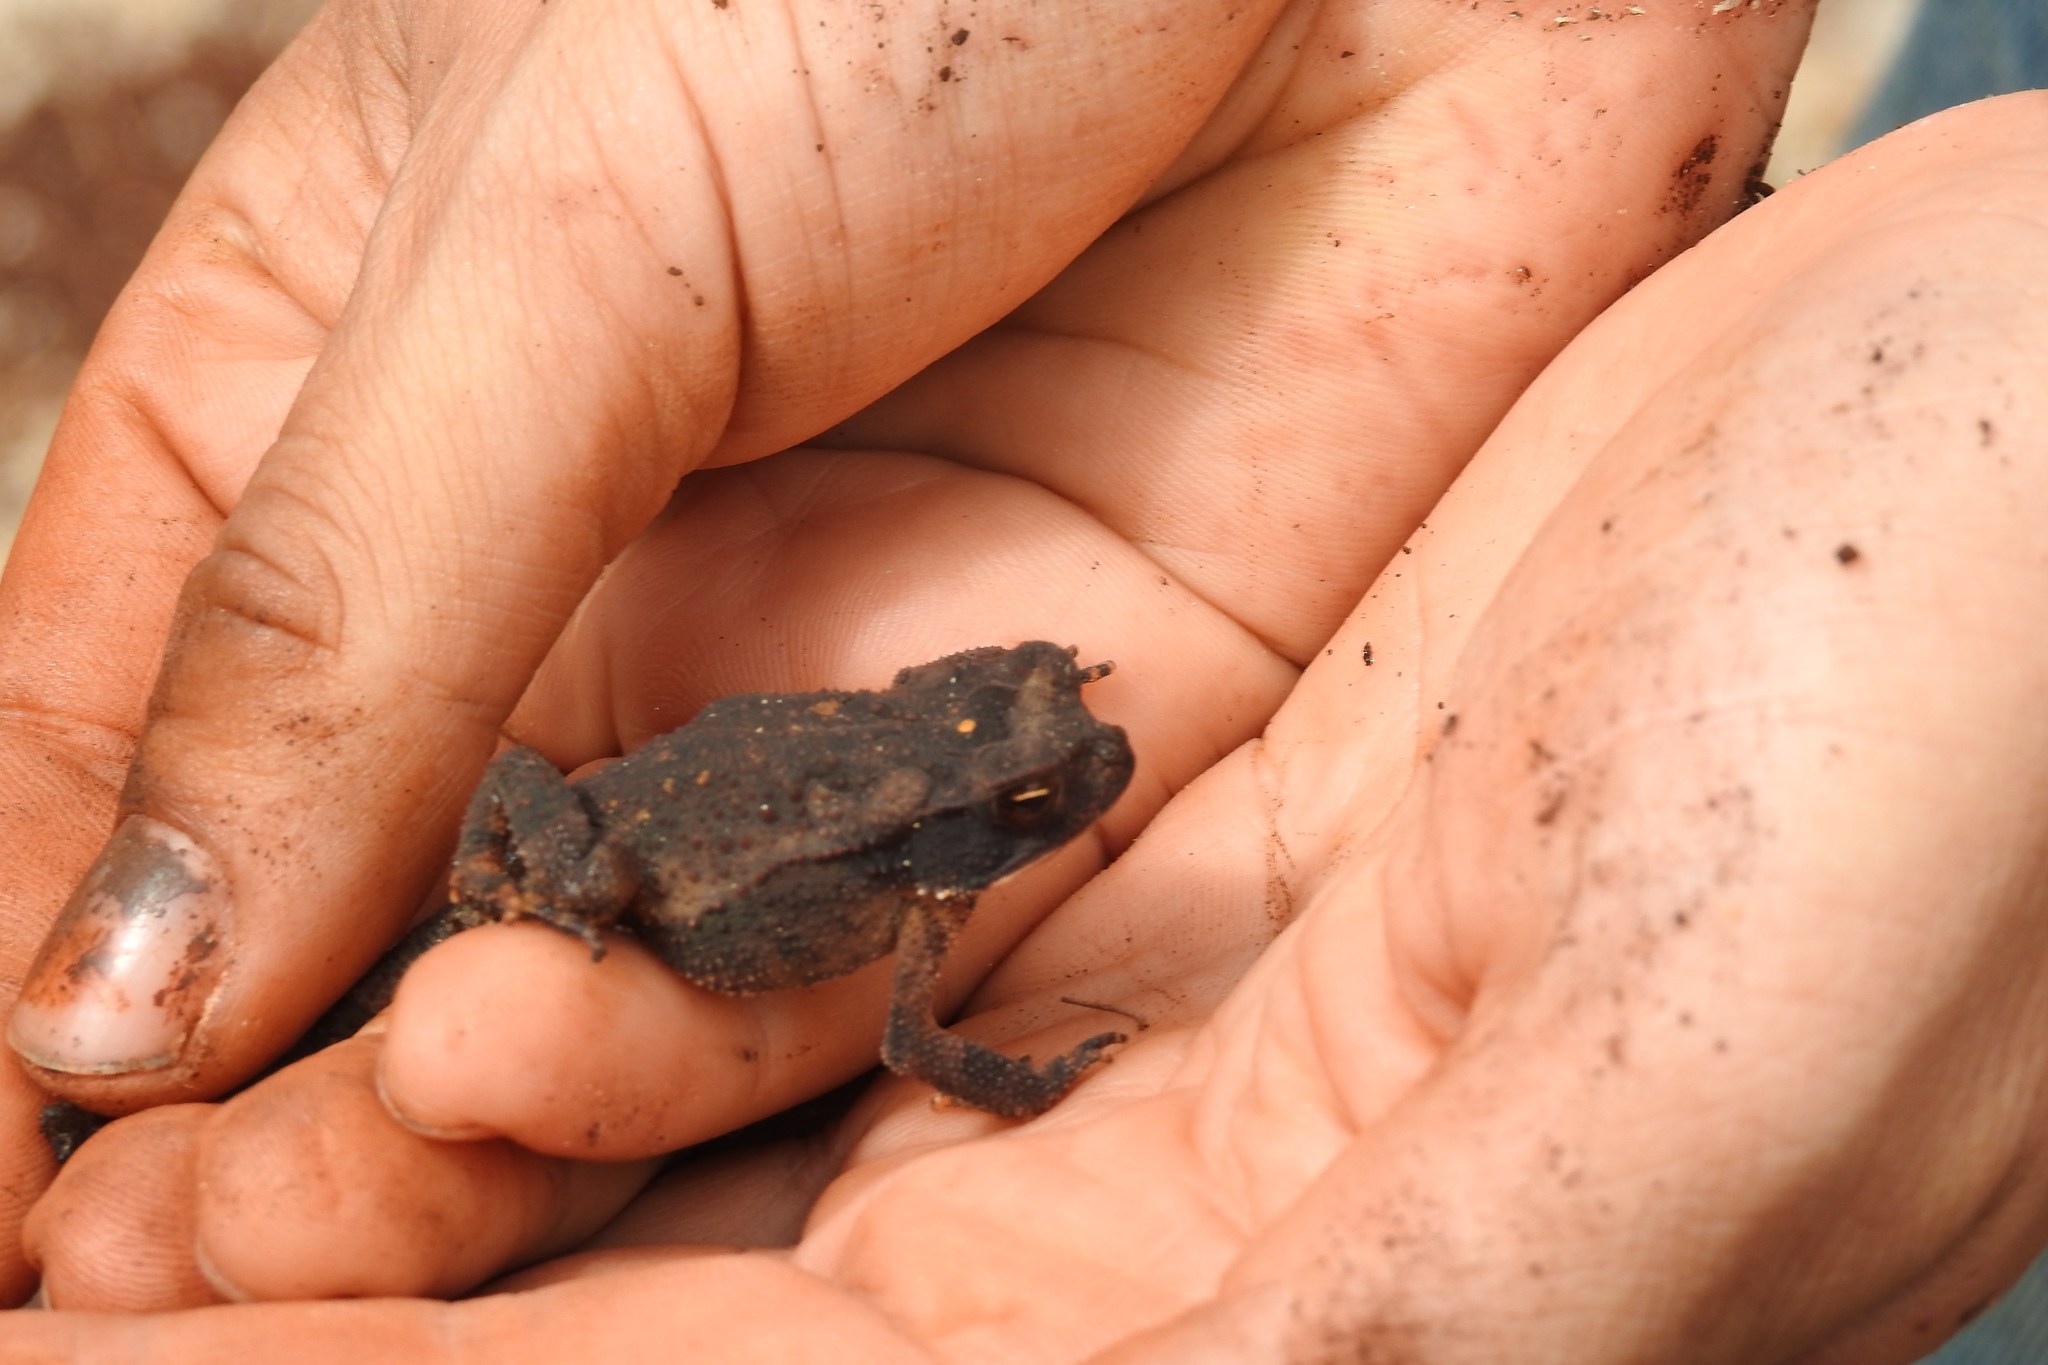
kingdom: Animalia
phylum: Chordata
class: Amphibia
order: Anura
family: Bufonidae
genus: Incilius
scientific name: Incilius valliceps
